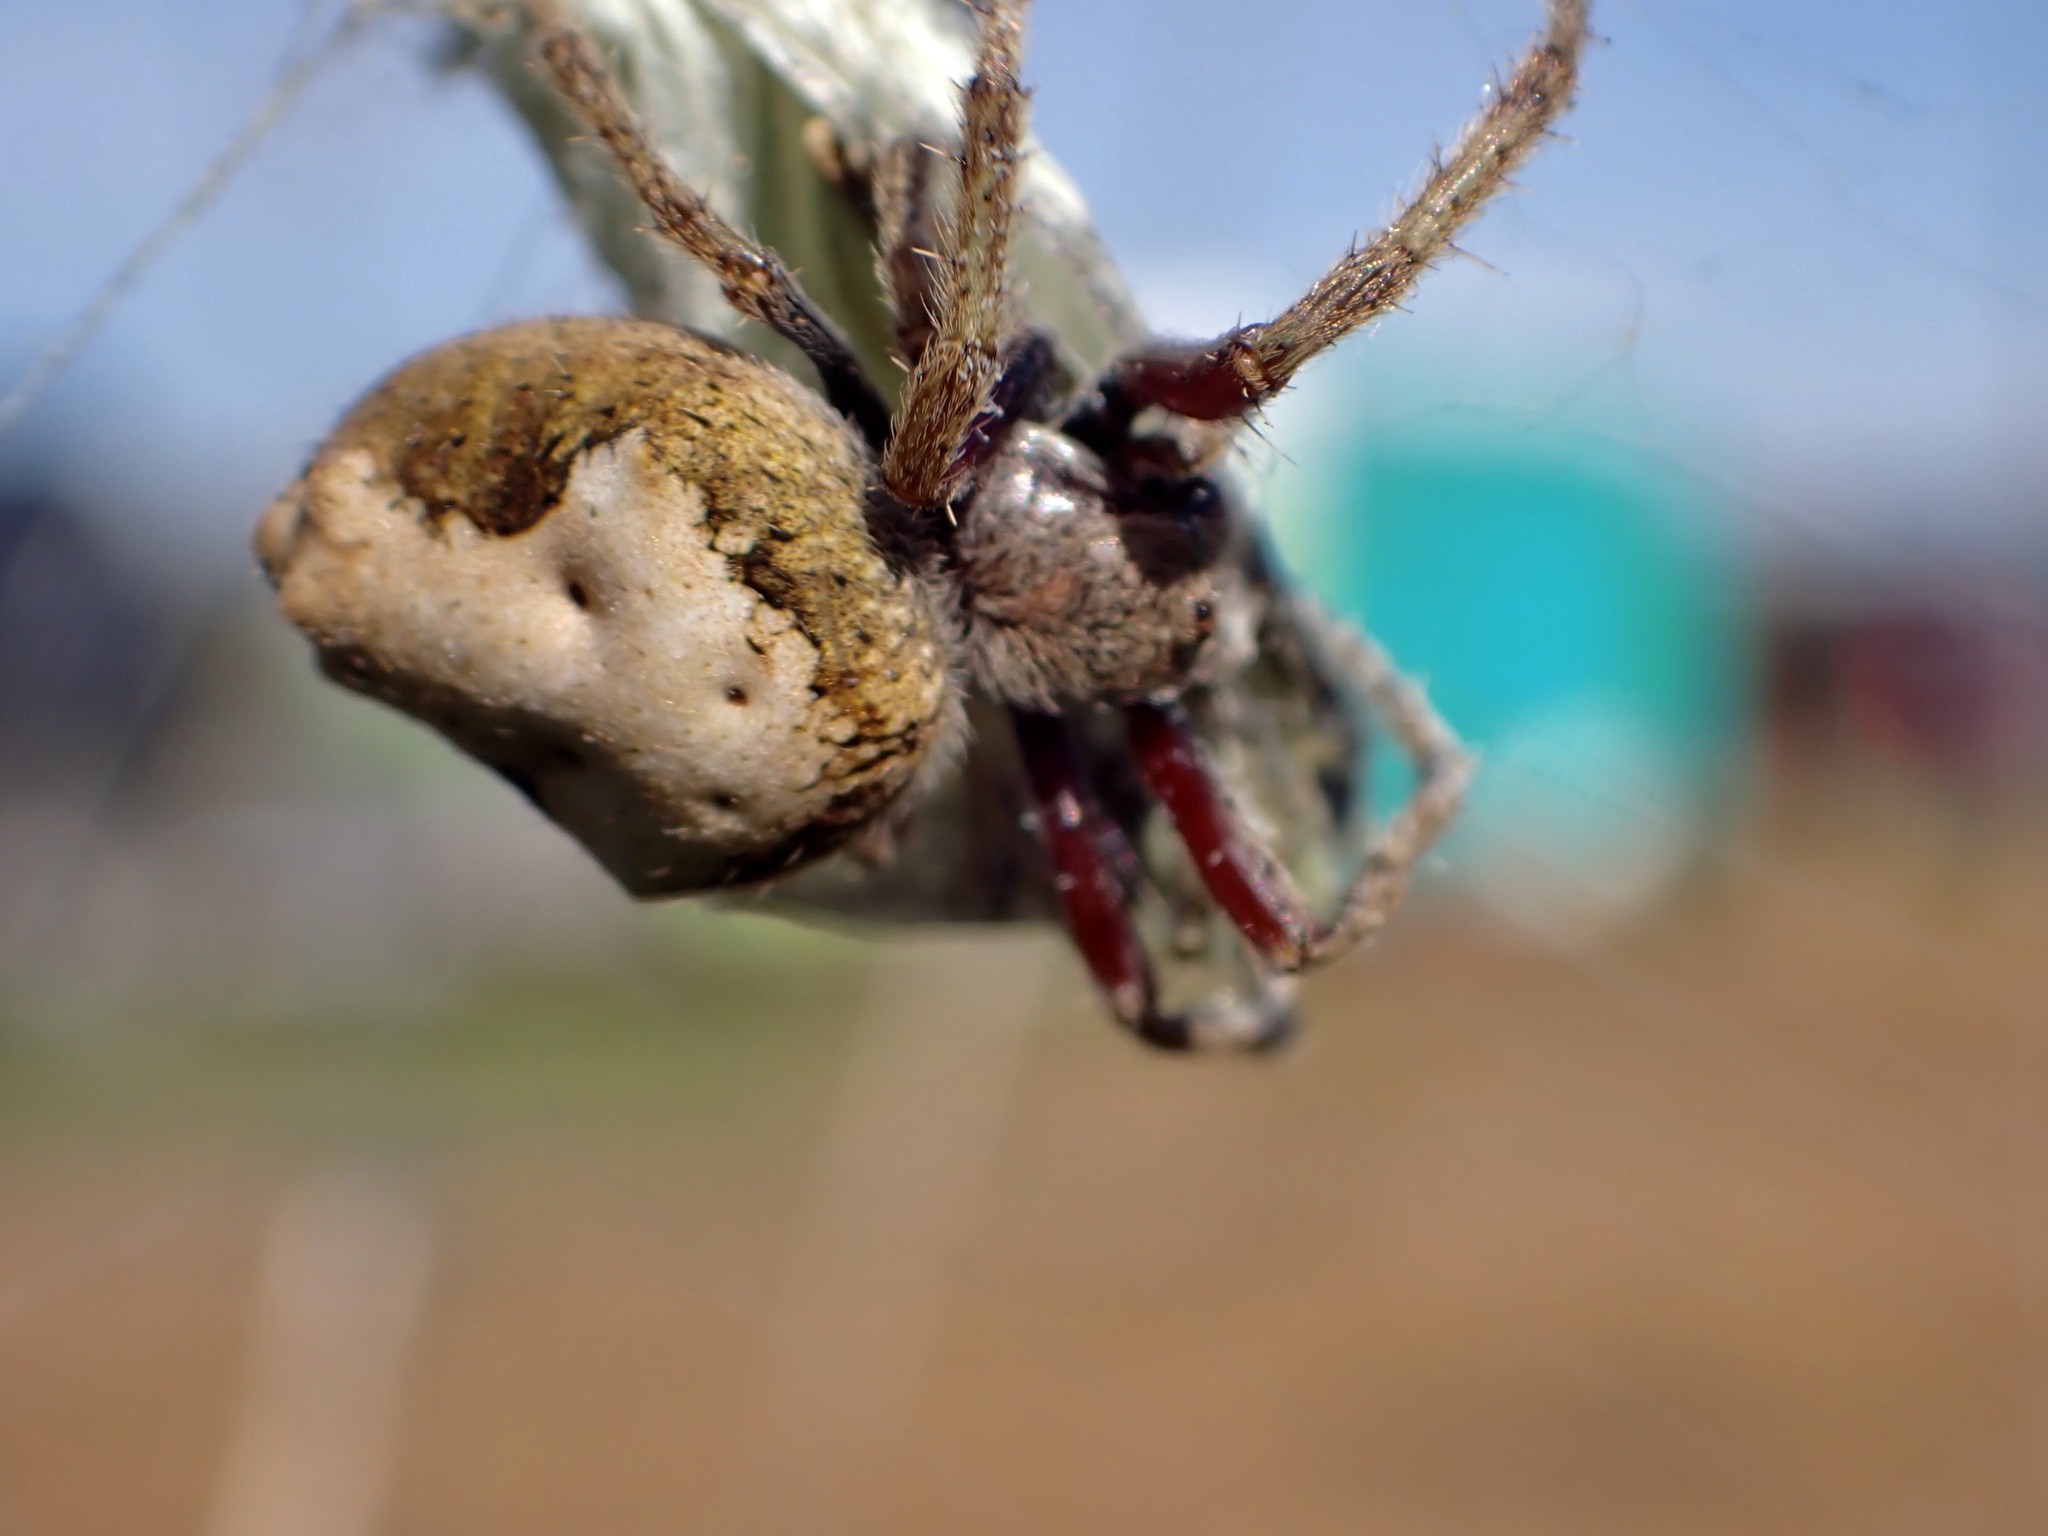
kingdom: Animalia
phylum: Arthropoda
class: Arachnida
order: Araneae
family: Araneidae
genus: Eriophora
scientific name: Eriophora pustulosa
